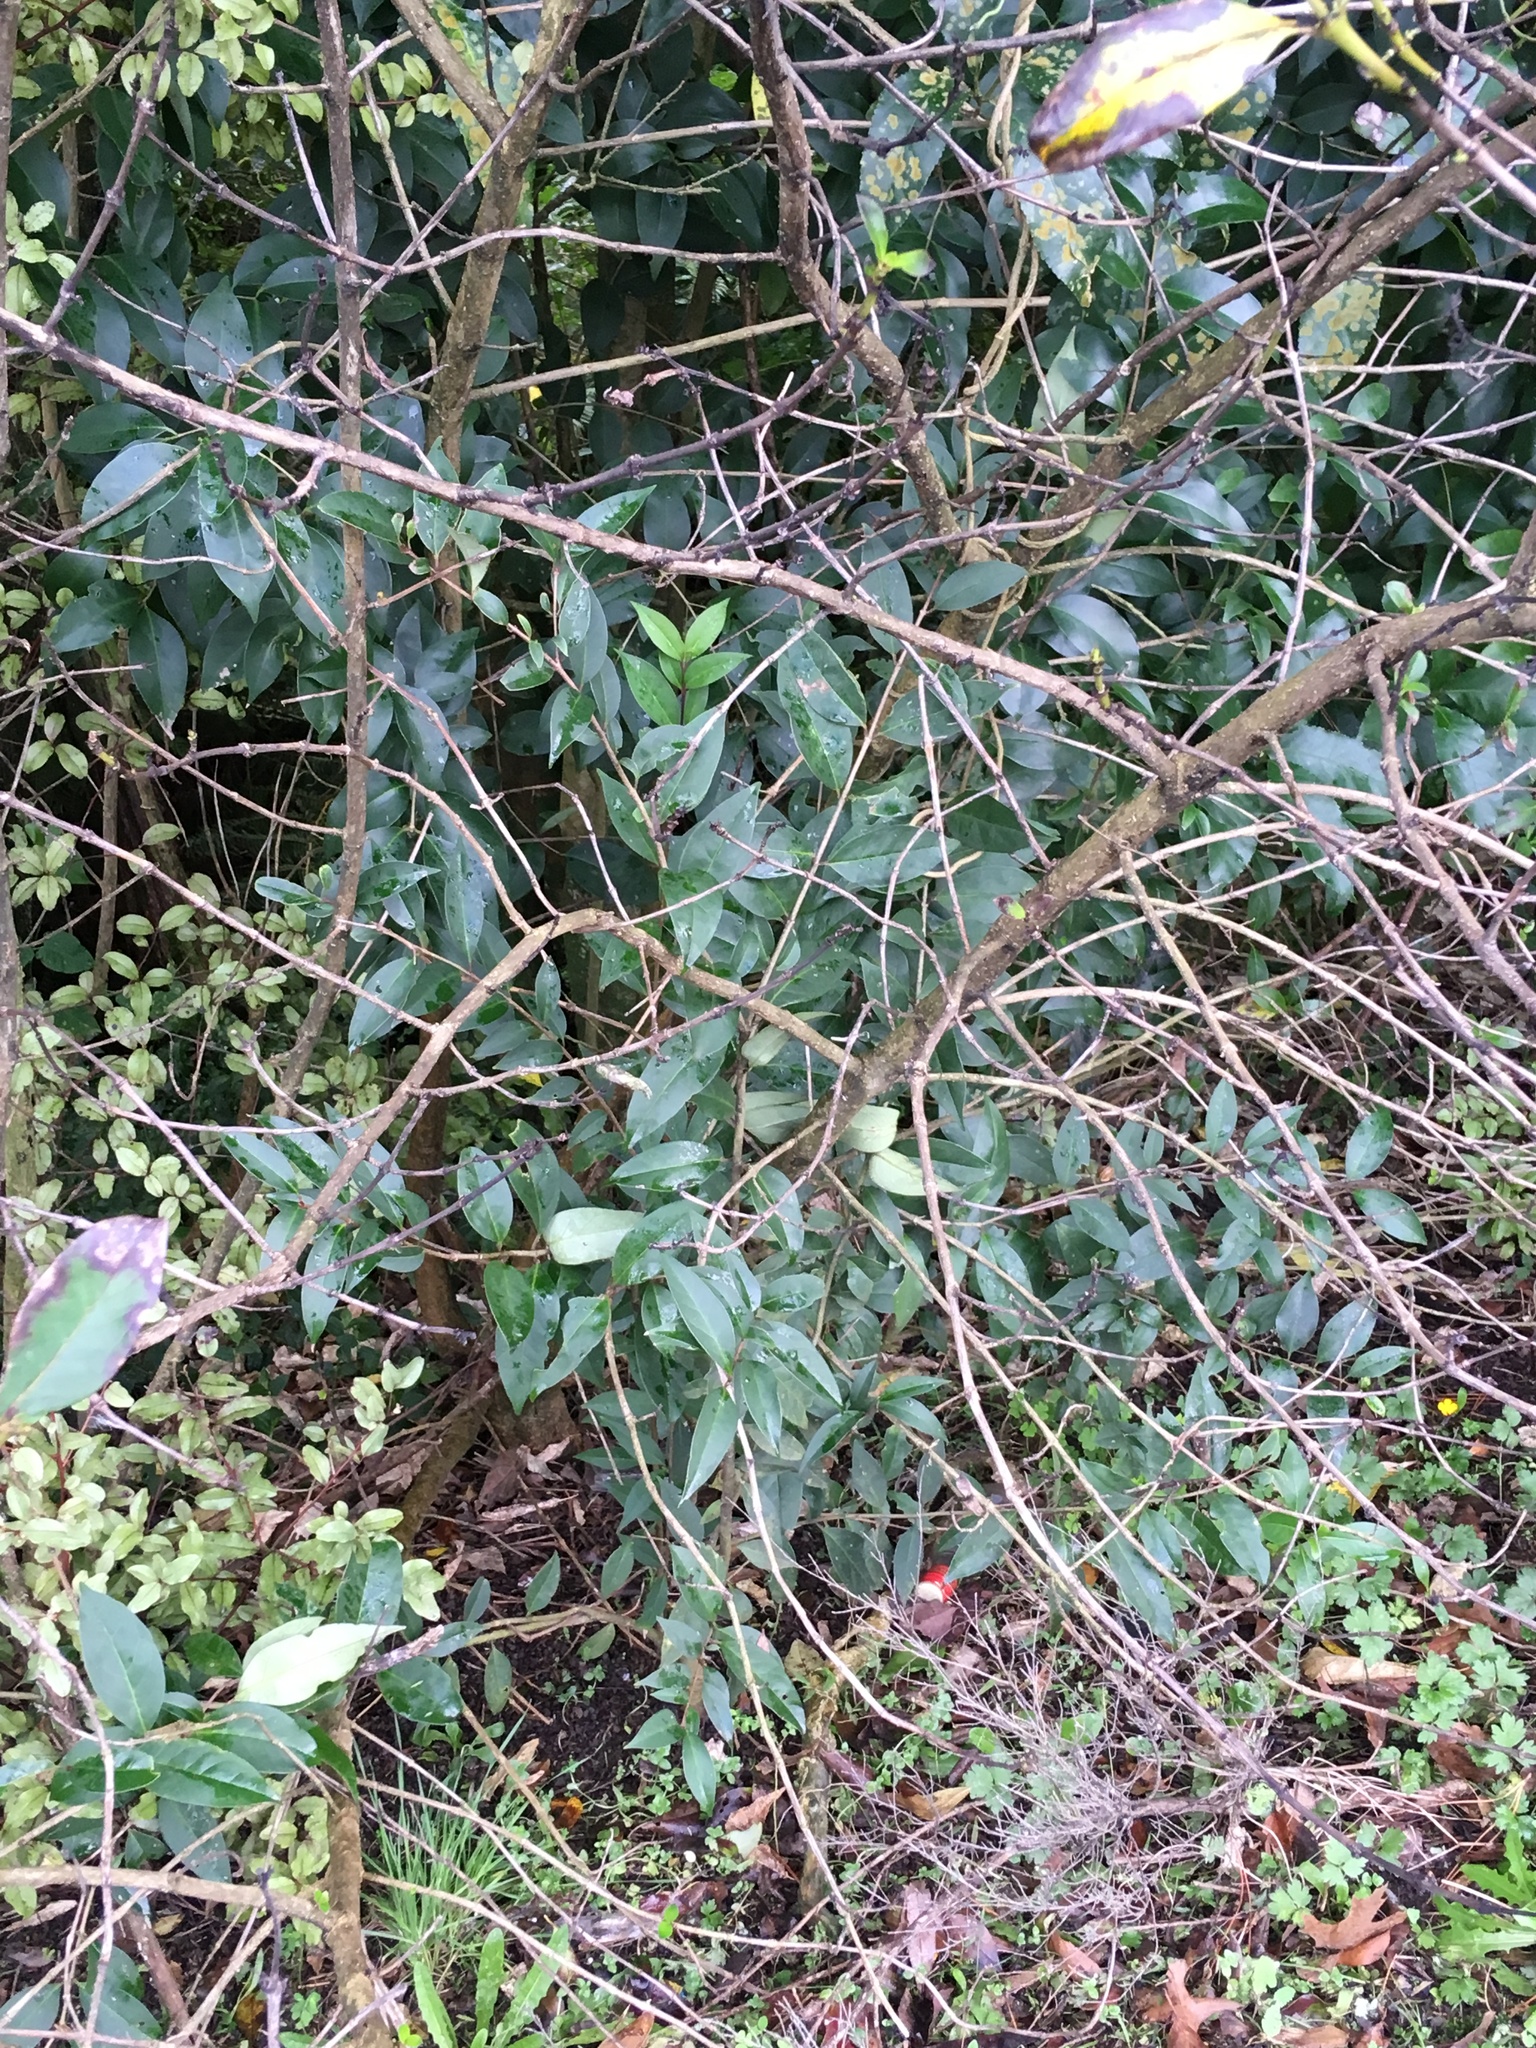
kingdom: Plantae
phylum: Tracheophyta
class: Magnoliopsida
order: Lamiales
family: Oleaceae
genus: Ligustrum
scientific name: Ligustrum lucidum
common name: Glossy privet
